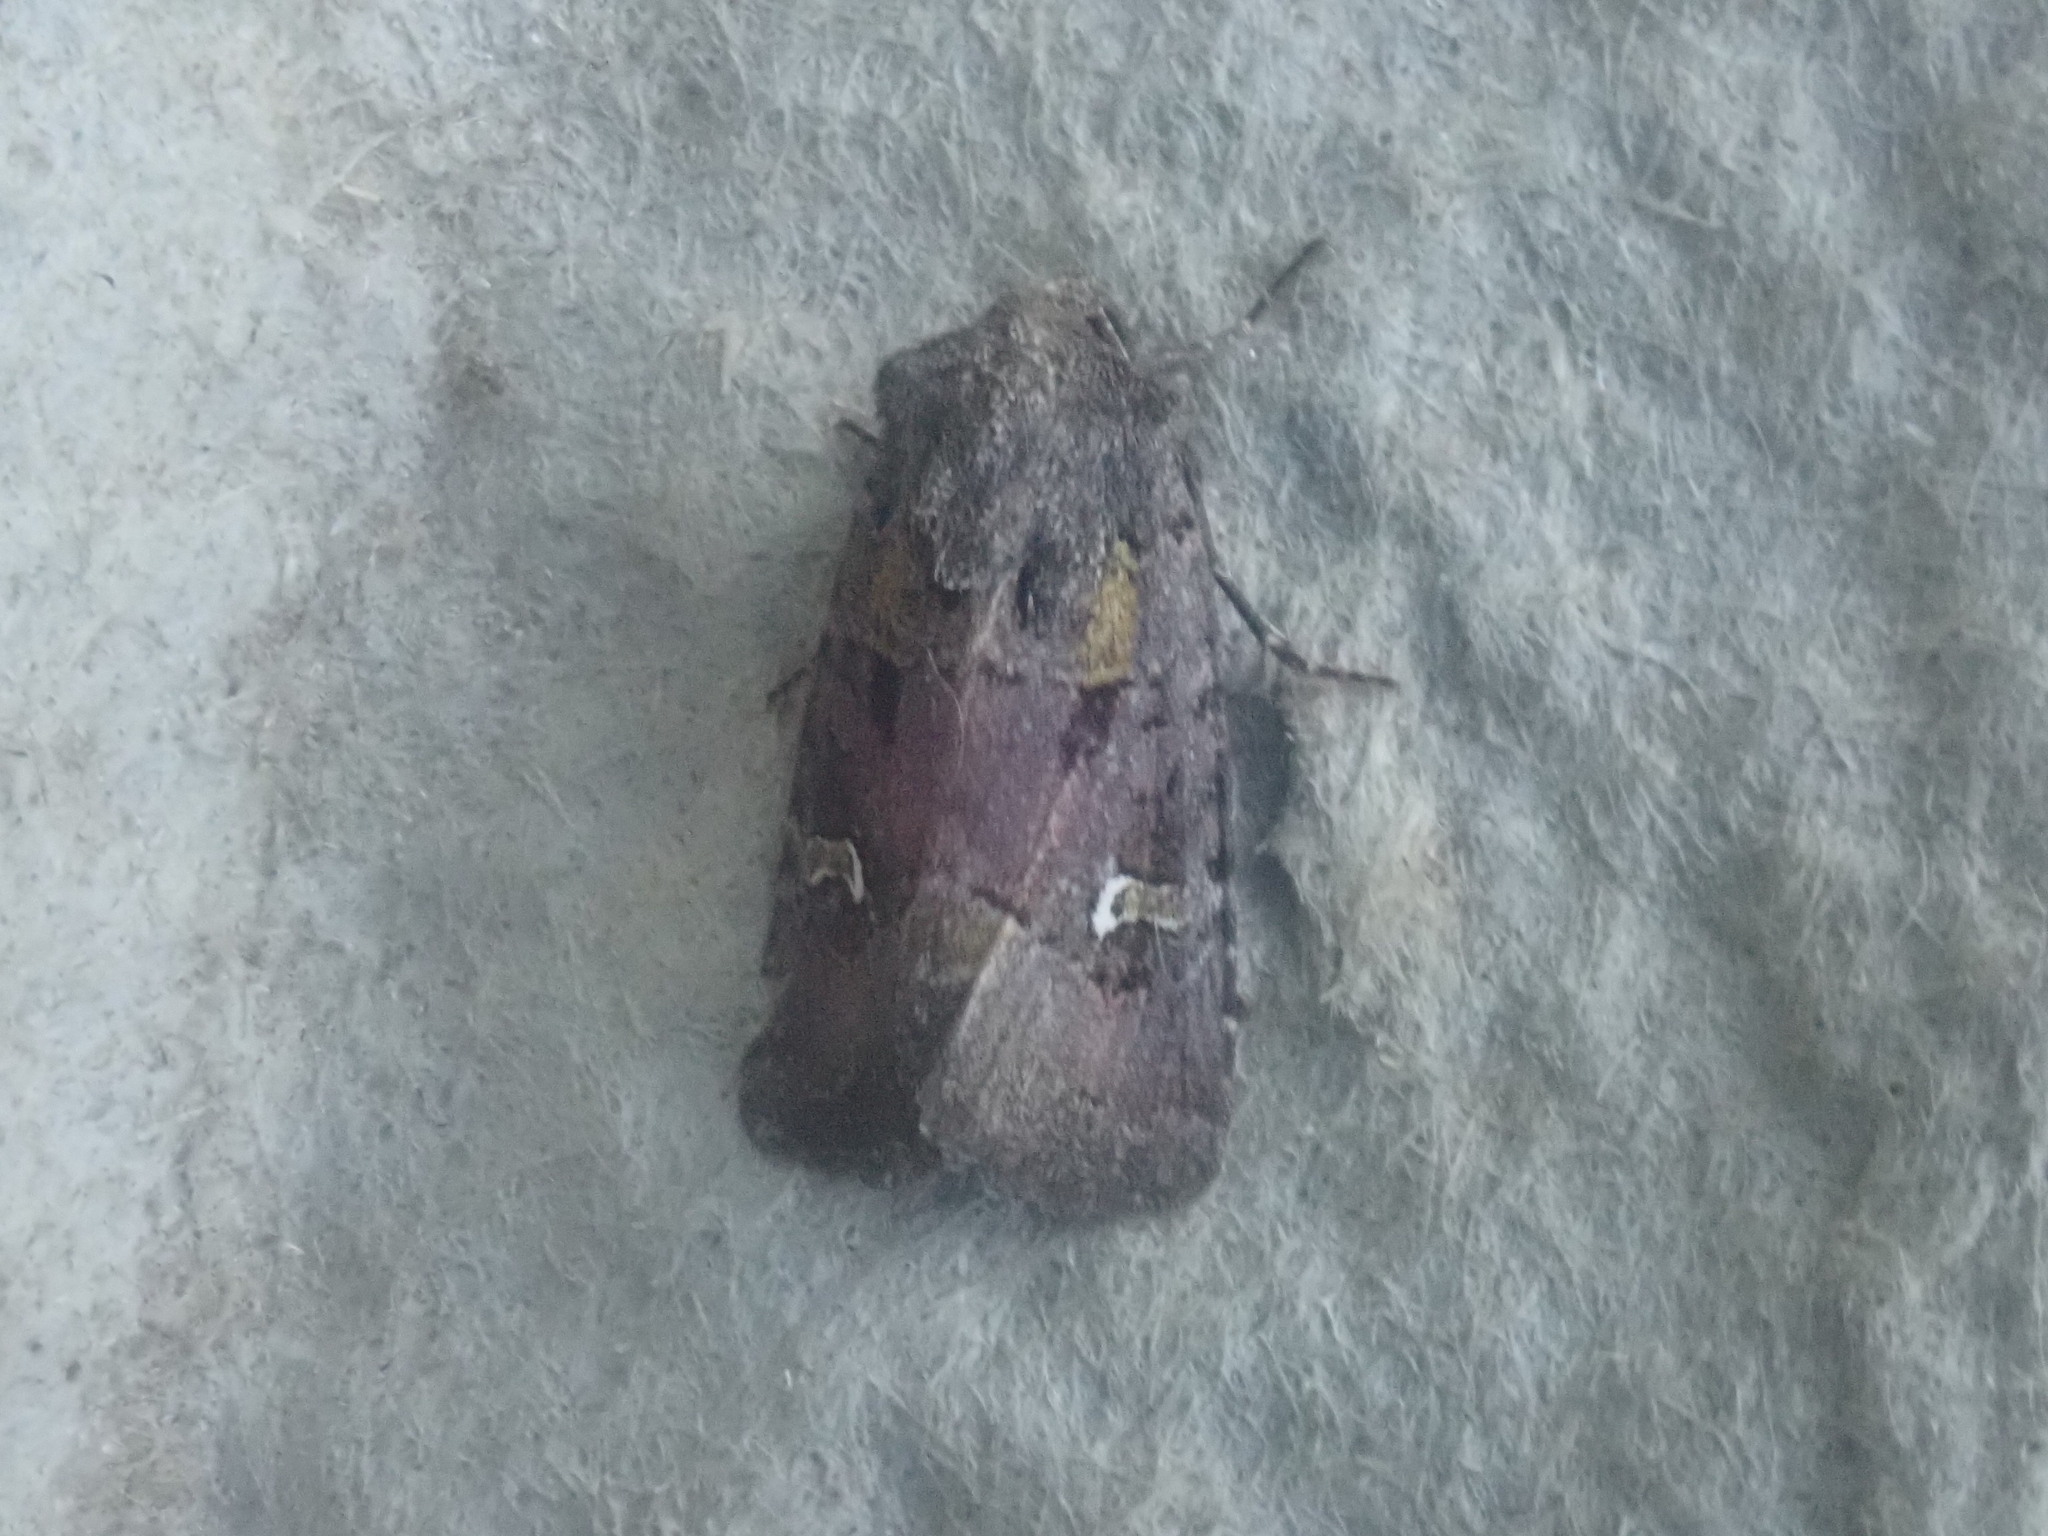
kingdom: Animalia
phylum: Arthropoda
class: Insecta
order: Lepidoptera
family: Noctuidae
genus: Lacinipolia
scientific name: Lacinipolia renigera
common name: Kidney-spotted minor
